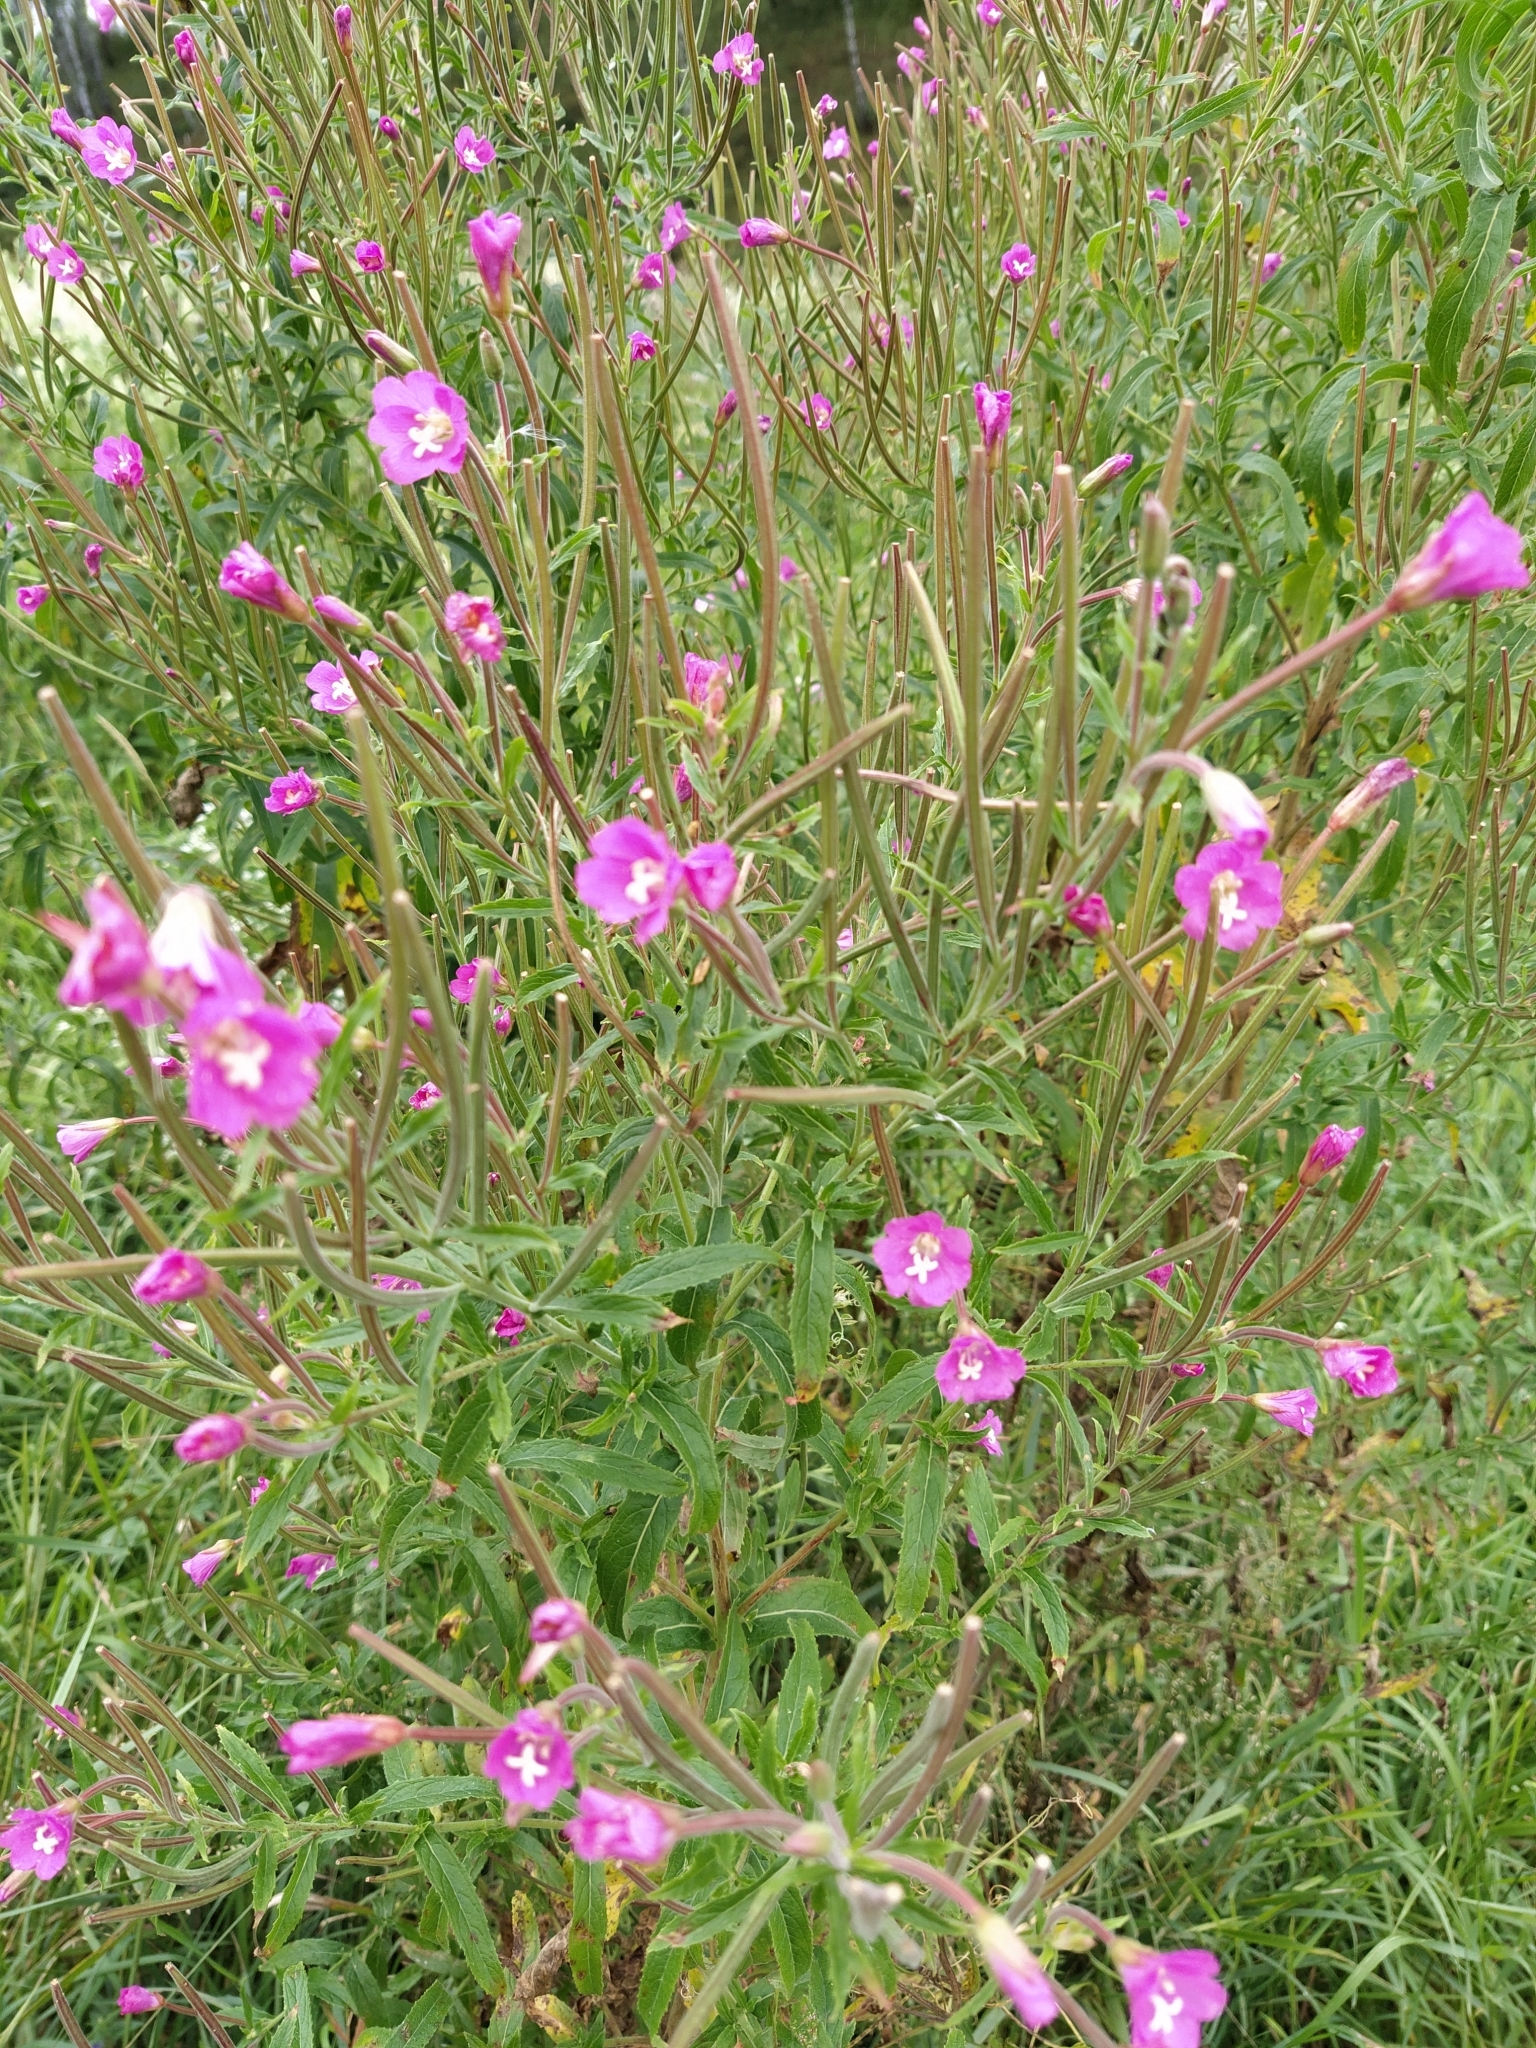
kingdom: Plantae
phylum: Tracheophyta
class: Magnoliopsida
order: Myrtales
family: Onagraceae
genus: Epilobium
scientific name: Epilobium hirsutum
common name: Great willowherb
